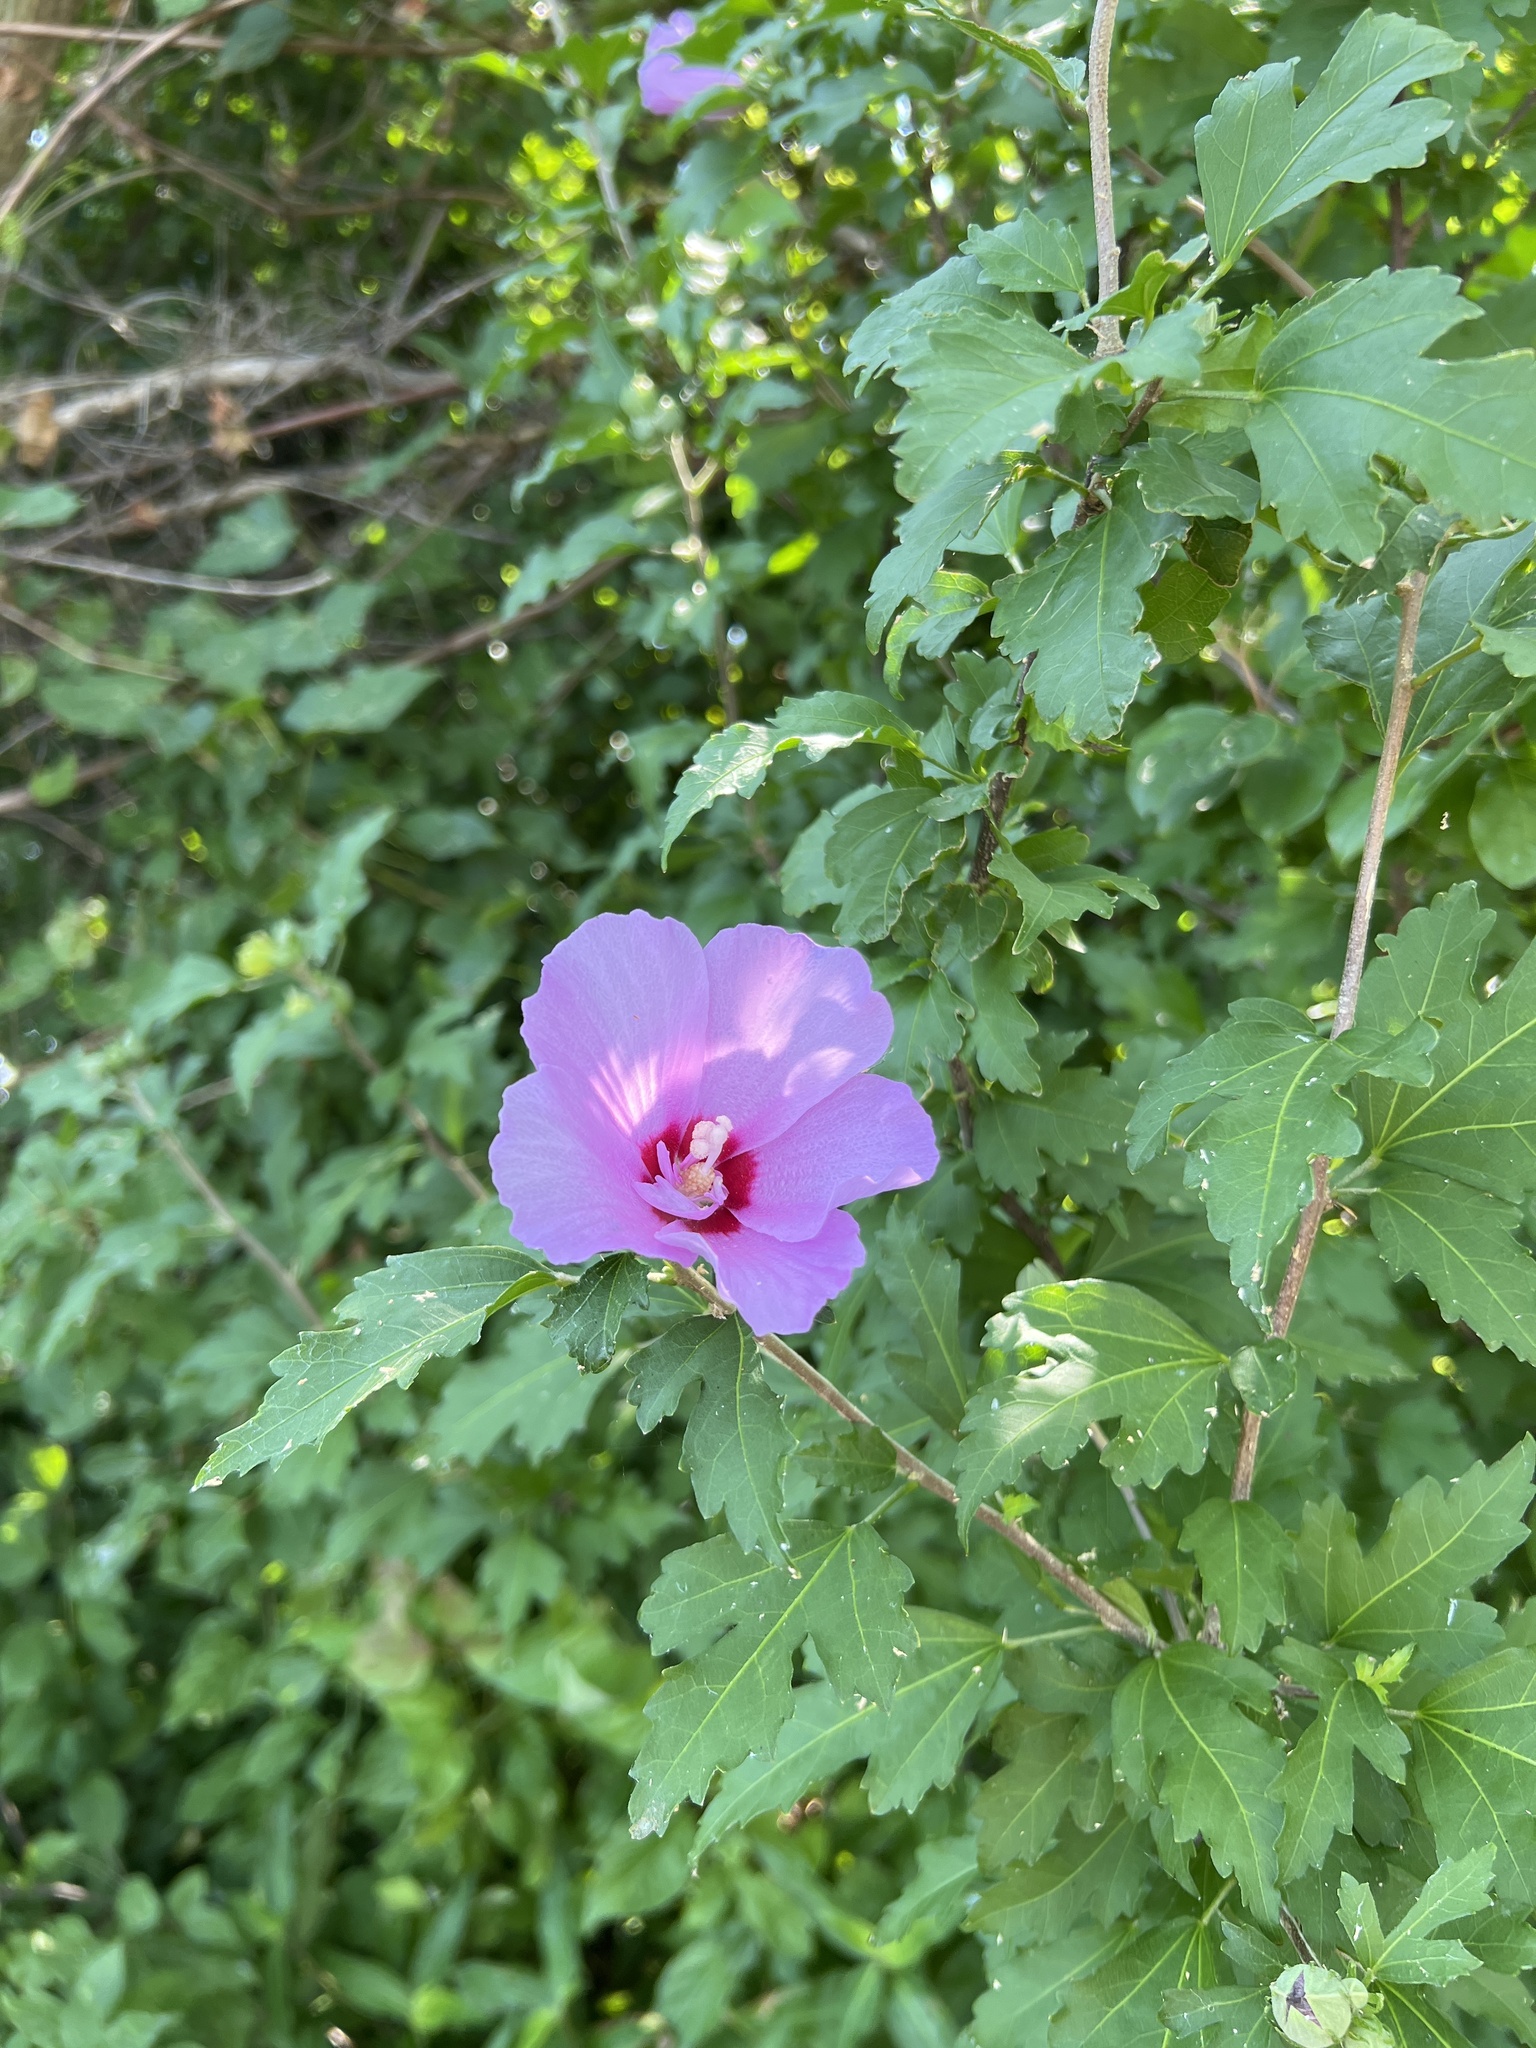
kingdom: Plantae
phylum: Tracheophyta
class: Magnoliopsida
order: Malvales
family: Malvaceae
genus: Hibiscus
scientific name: Hibiscus syriacus
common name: Syrian ketmia
